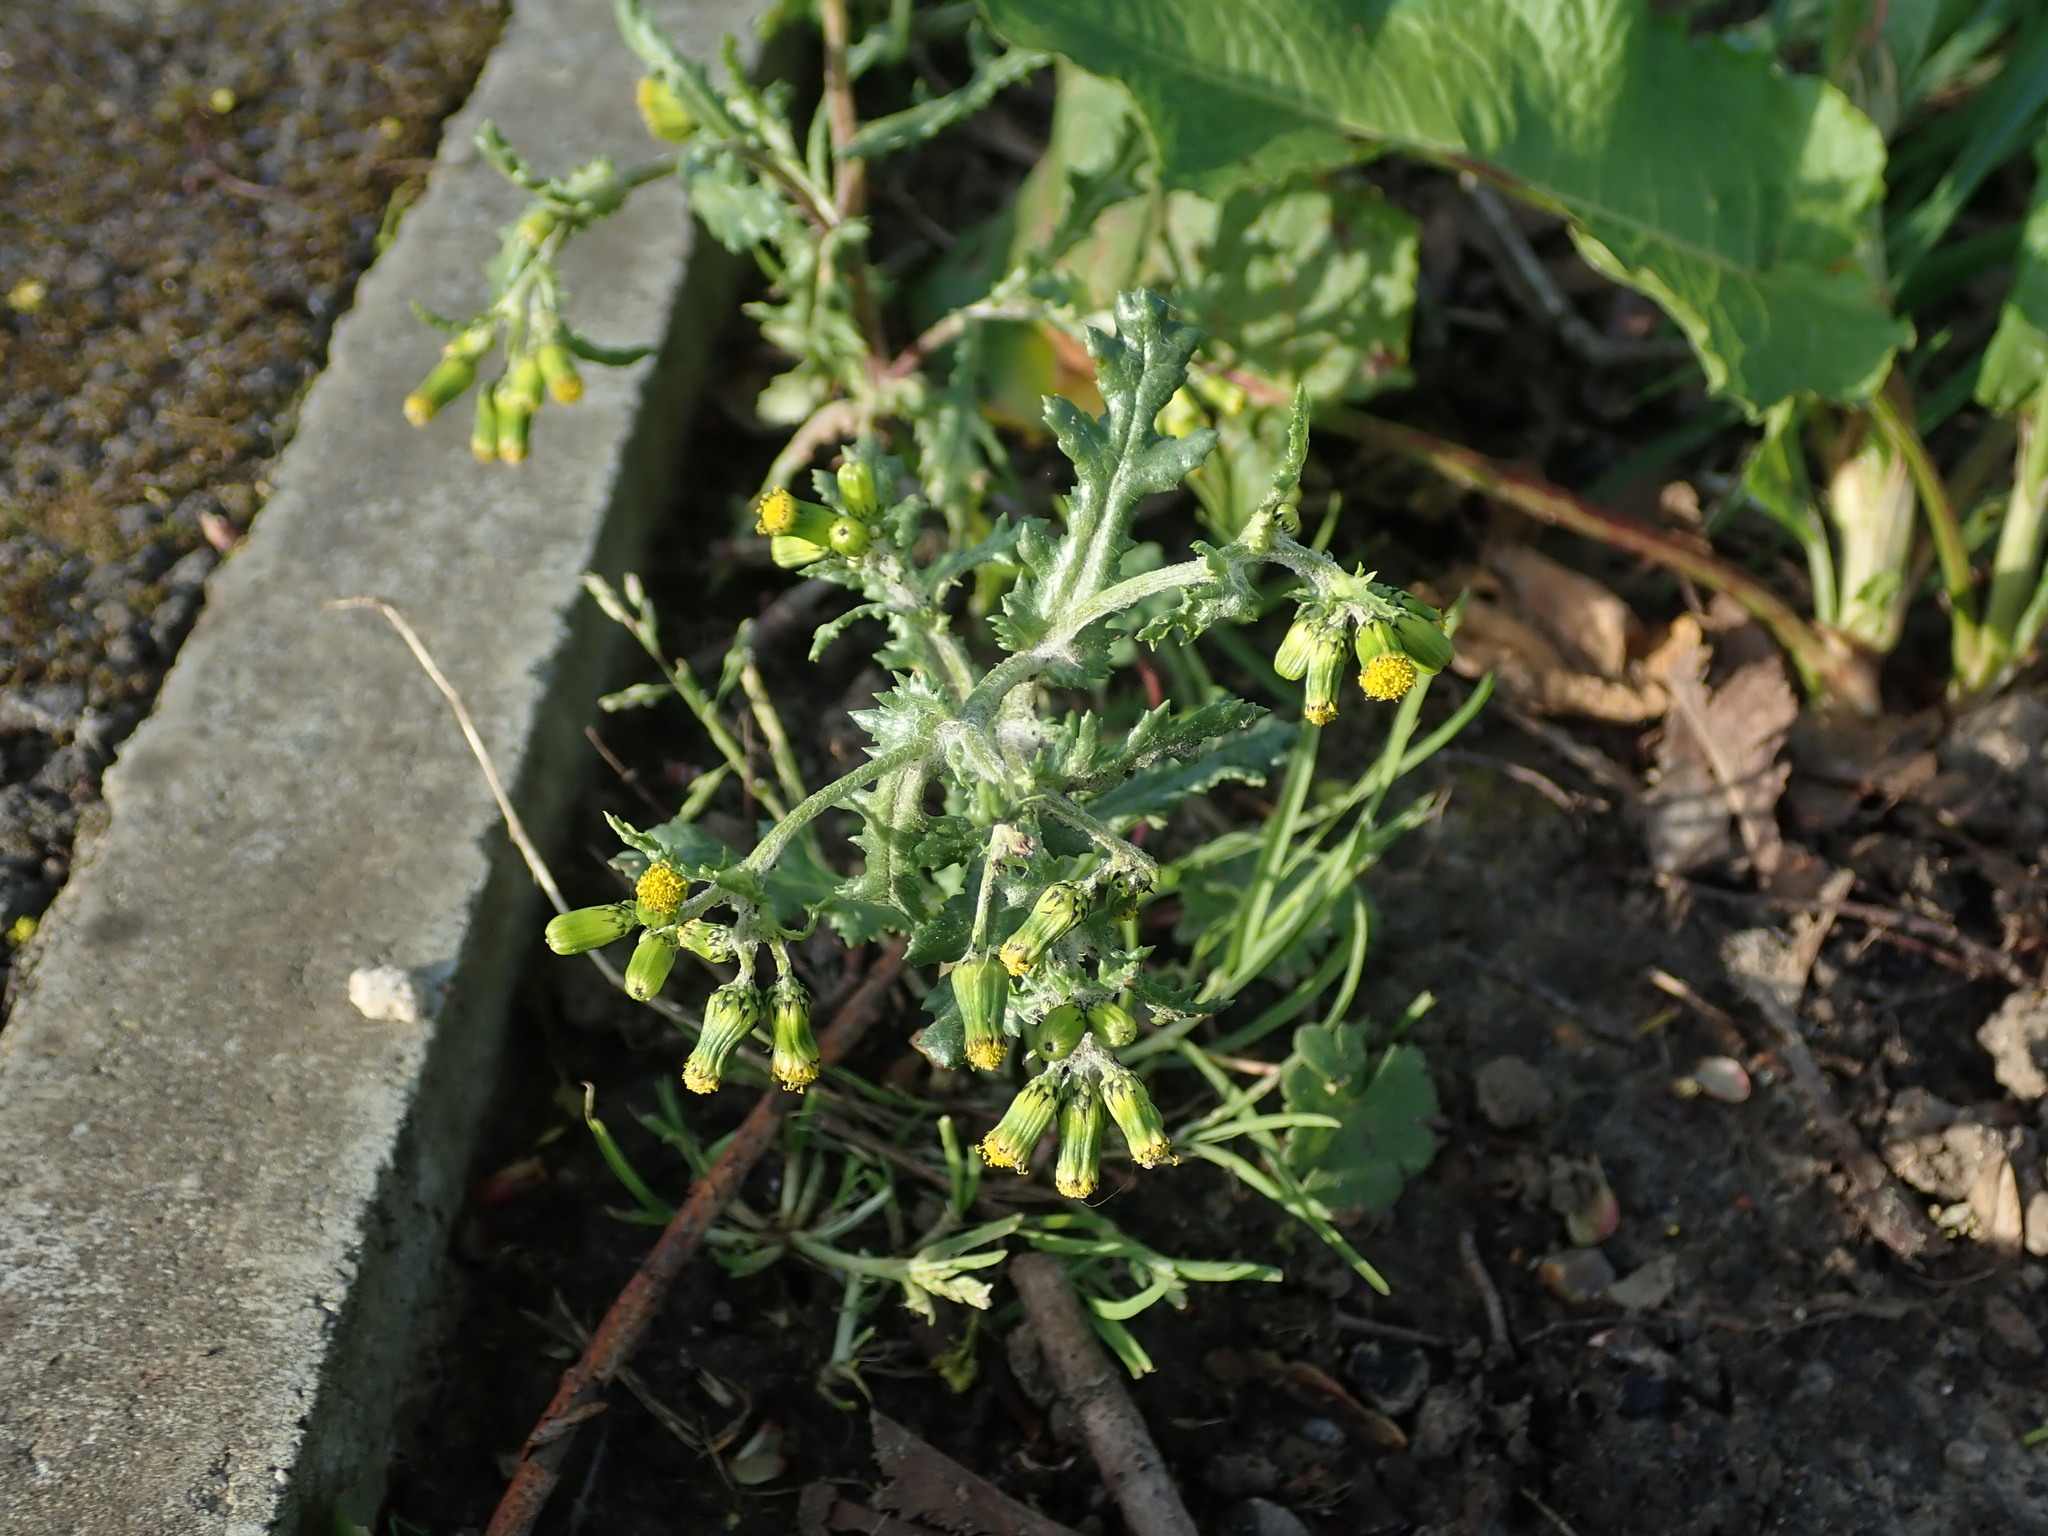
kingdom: Plantae
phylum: Tracheophyta
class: Magnoliopsida
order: Asterales
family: Asteraceae
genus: Senecio
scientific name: Senecio vulgaris
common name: Old-man-in-the-spring
